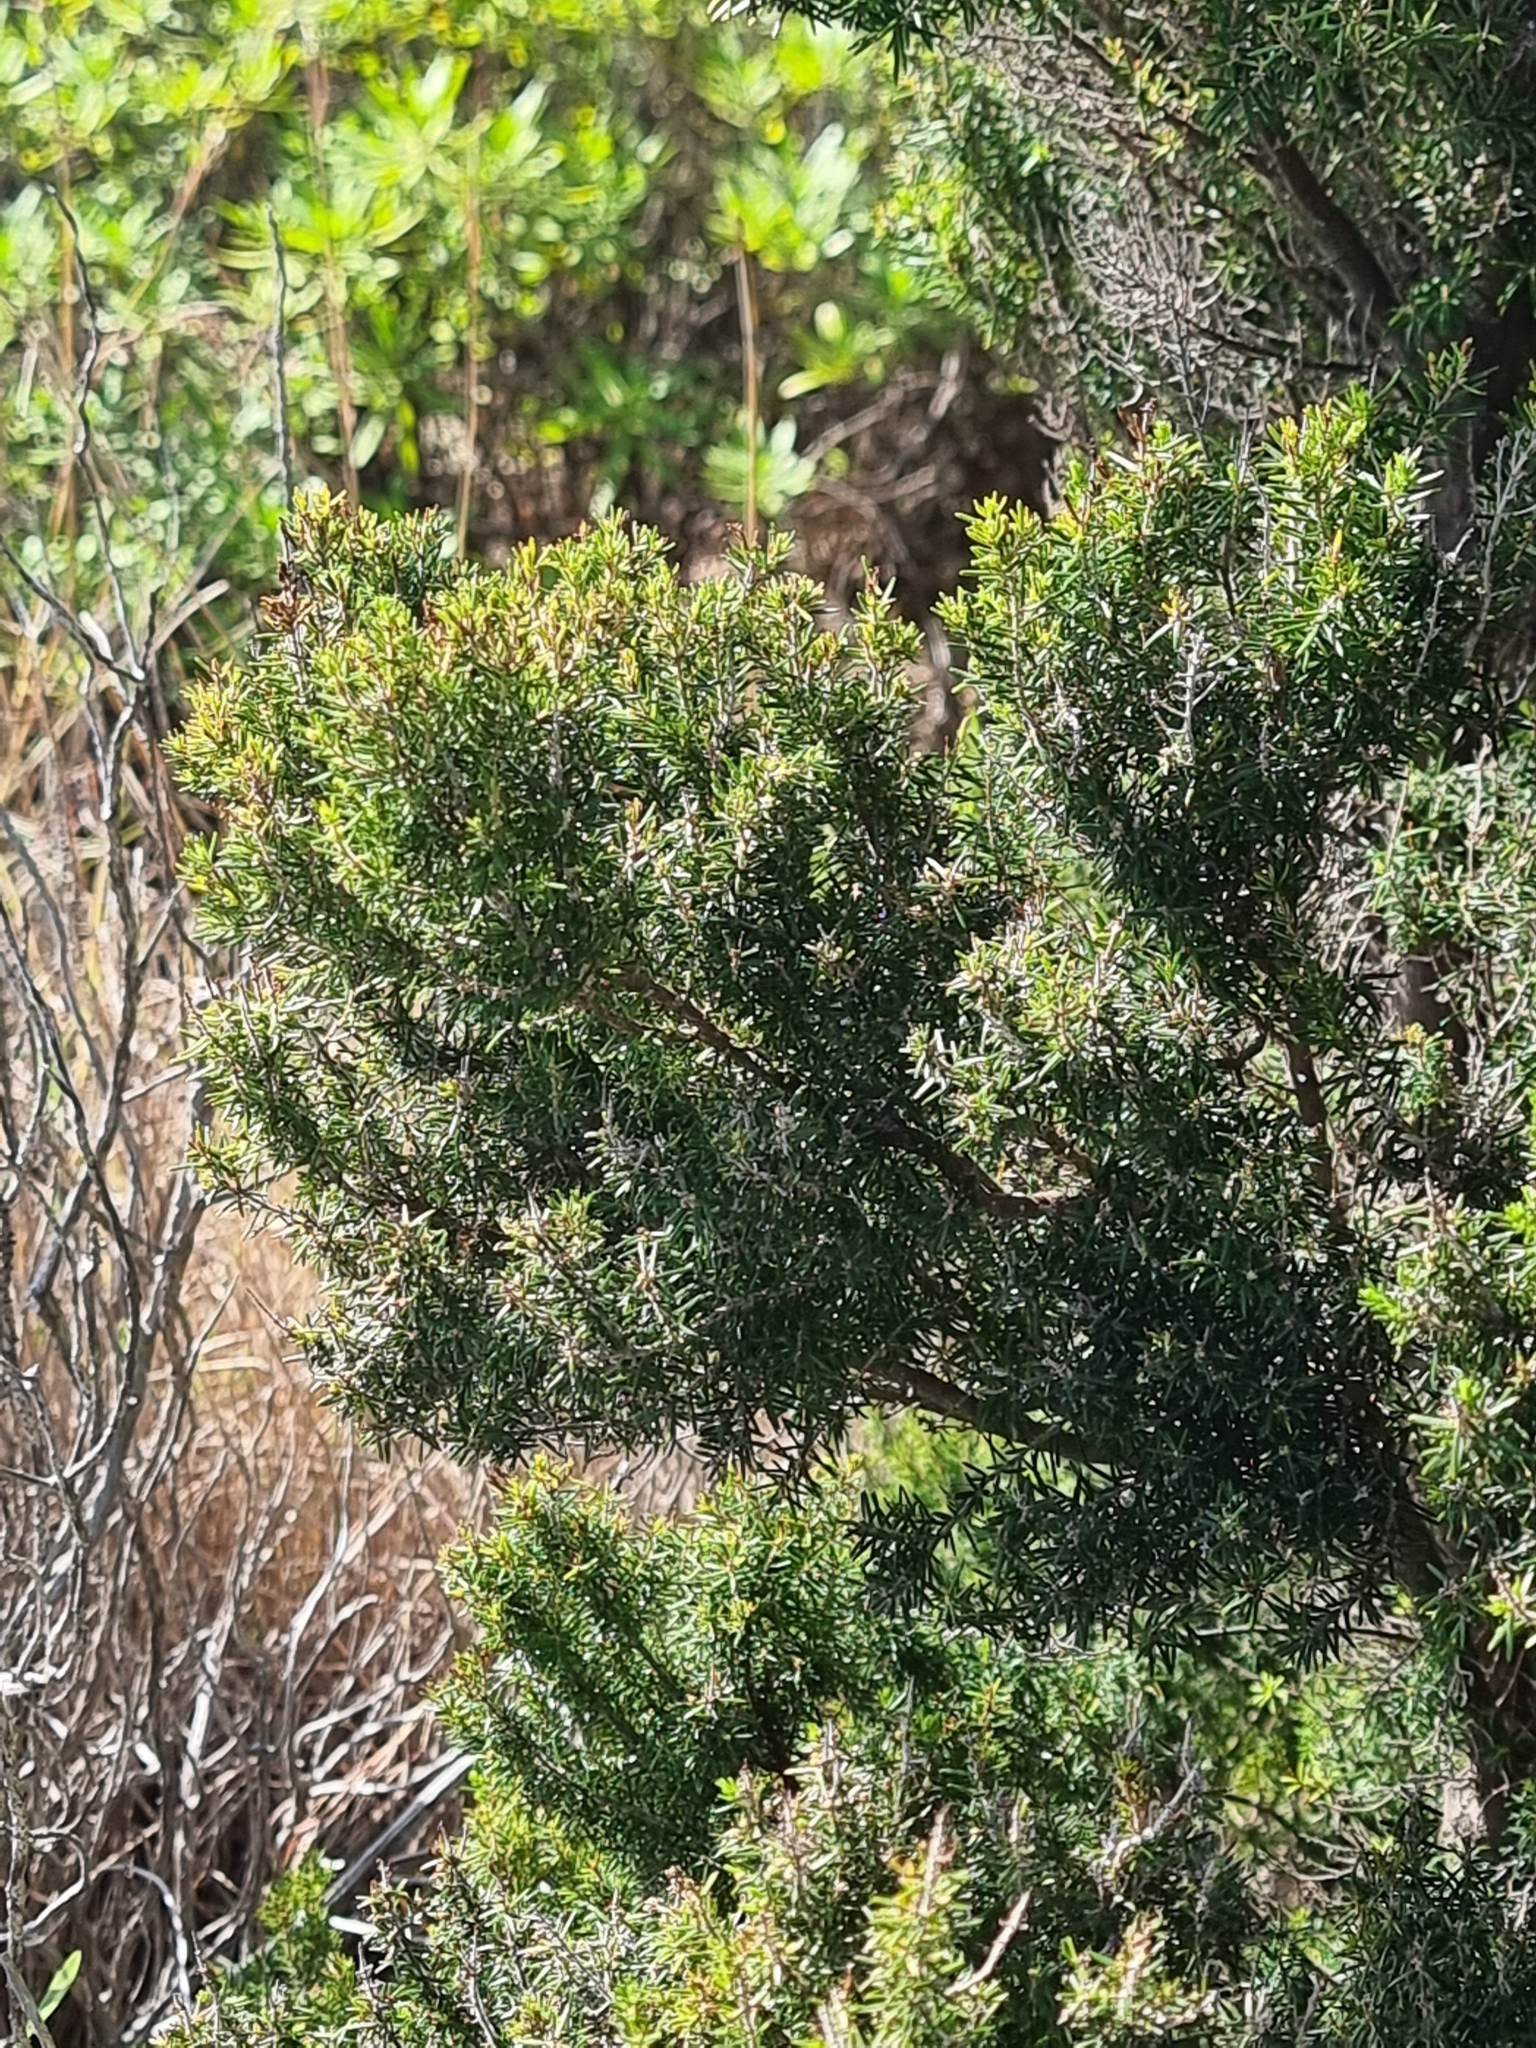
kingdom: Plantae
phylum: Tracheophyta
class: Magnoliopsida
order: Ericales
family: Ericaceae
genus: Erica
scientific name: Erica canariensis
